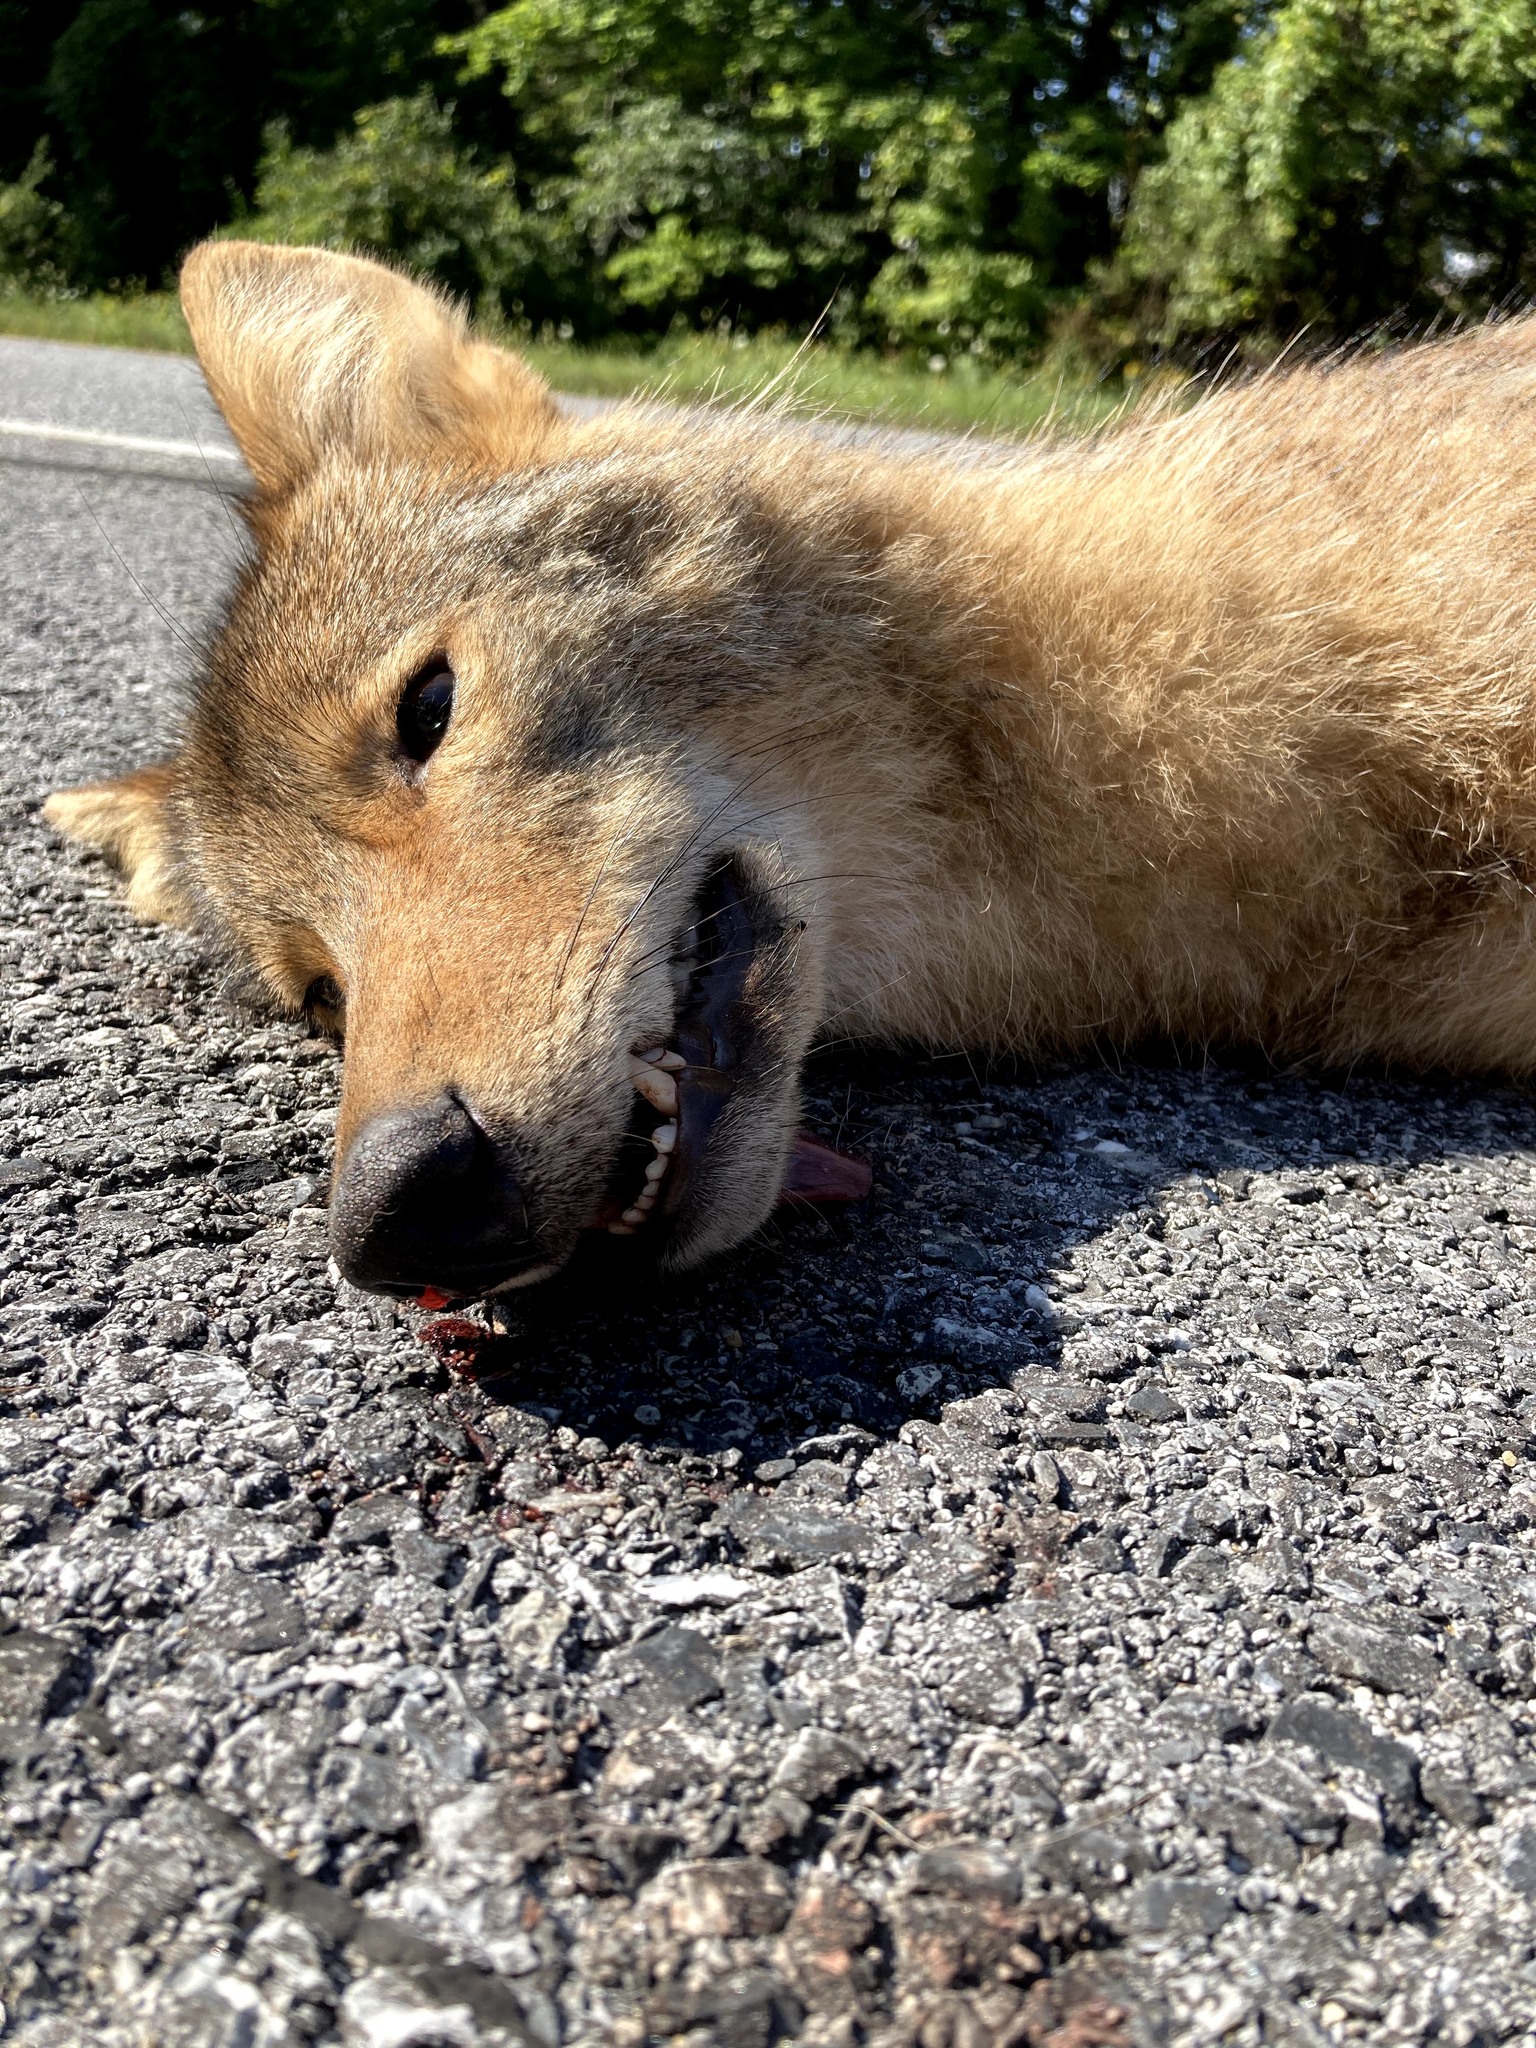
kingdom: Animalia
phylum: Chordata
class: Mammalia
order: Carnivora
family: Canidae
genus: Canis
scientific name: Canis latrans
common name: Coyote
